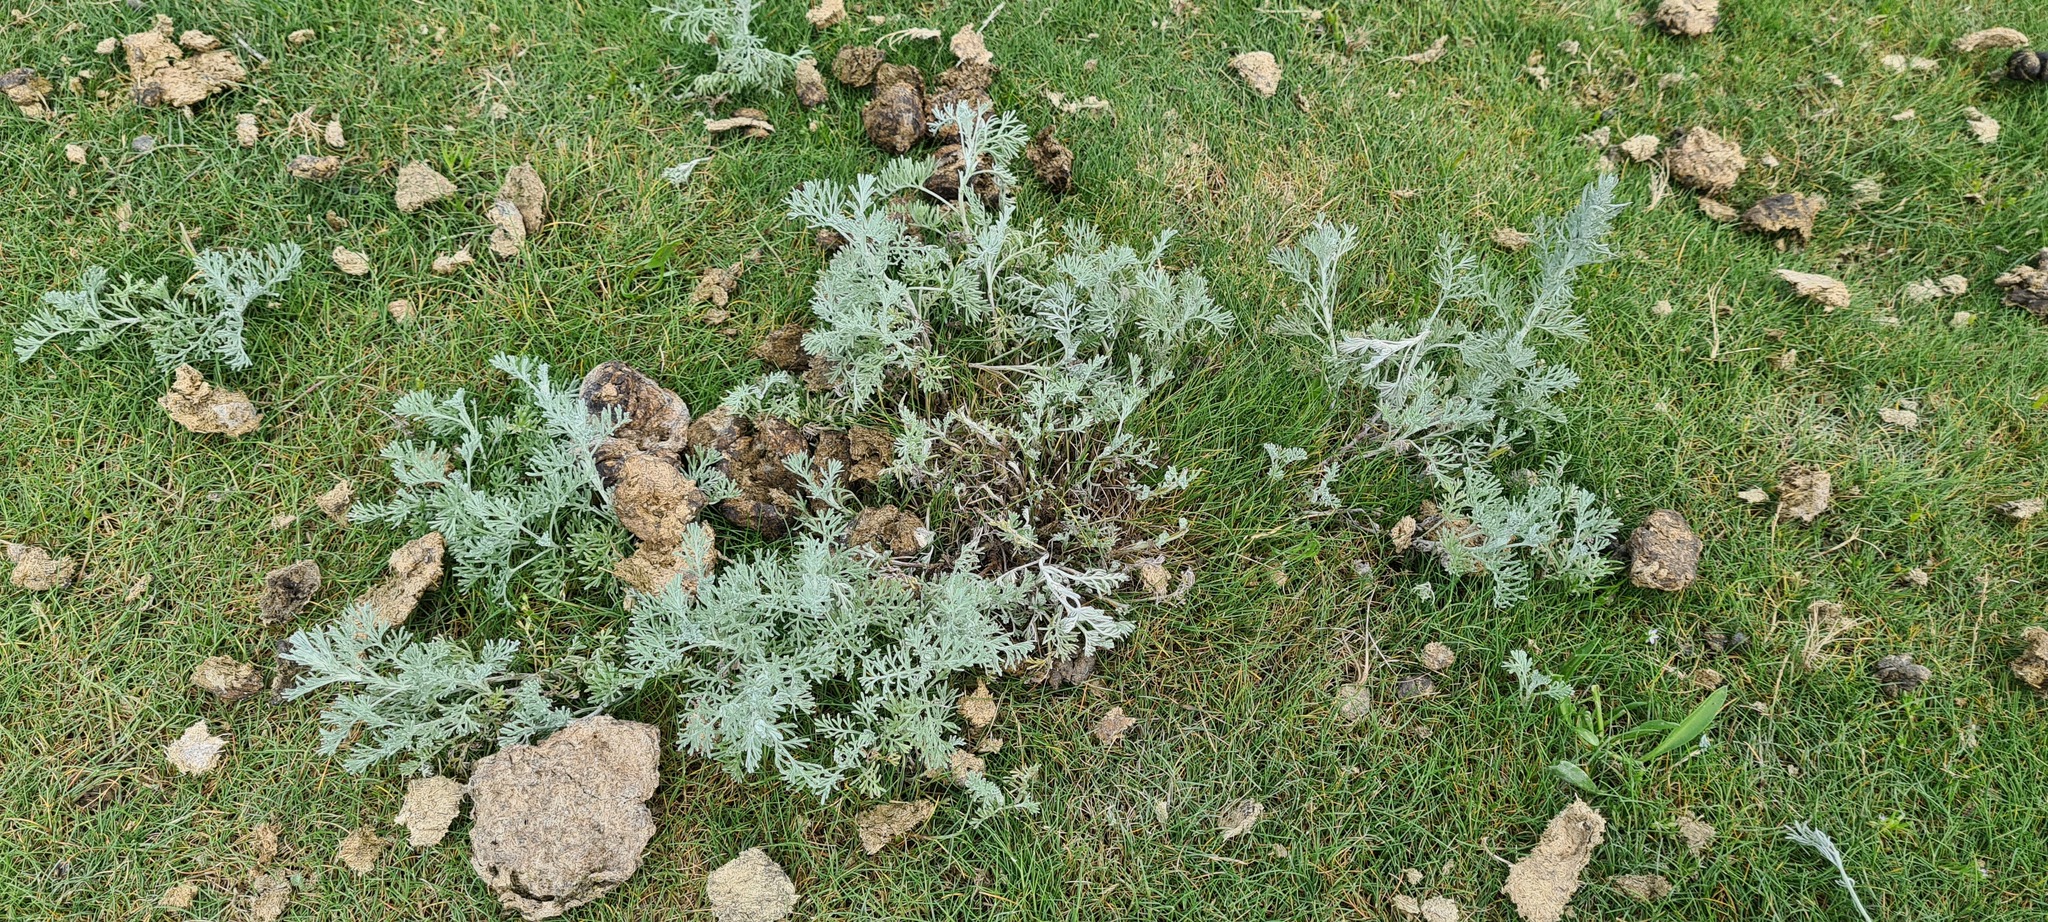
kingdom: Plantae
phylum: Tracheophyta
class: Magnoliopsida
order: Asterales
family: Asteraceae
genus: Artemisia
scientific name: Artemisia maritima
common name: Wormseed
